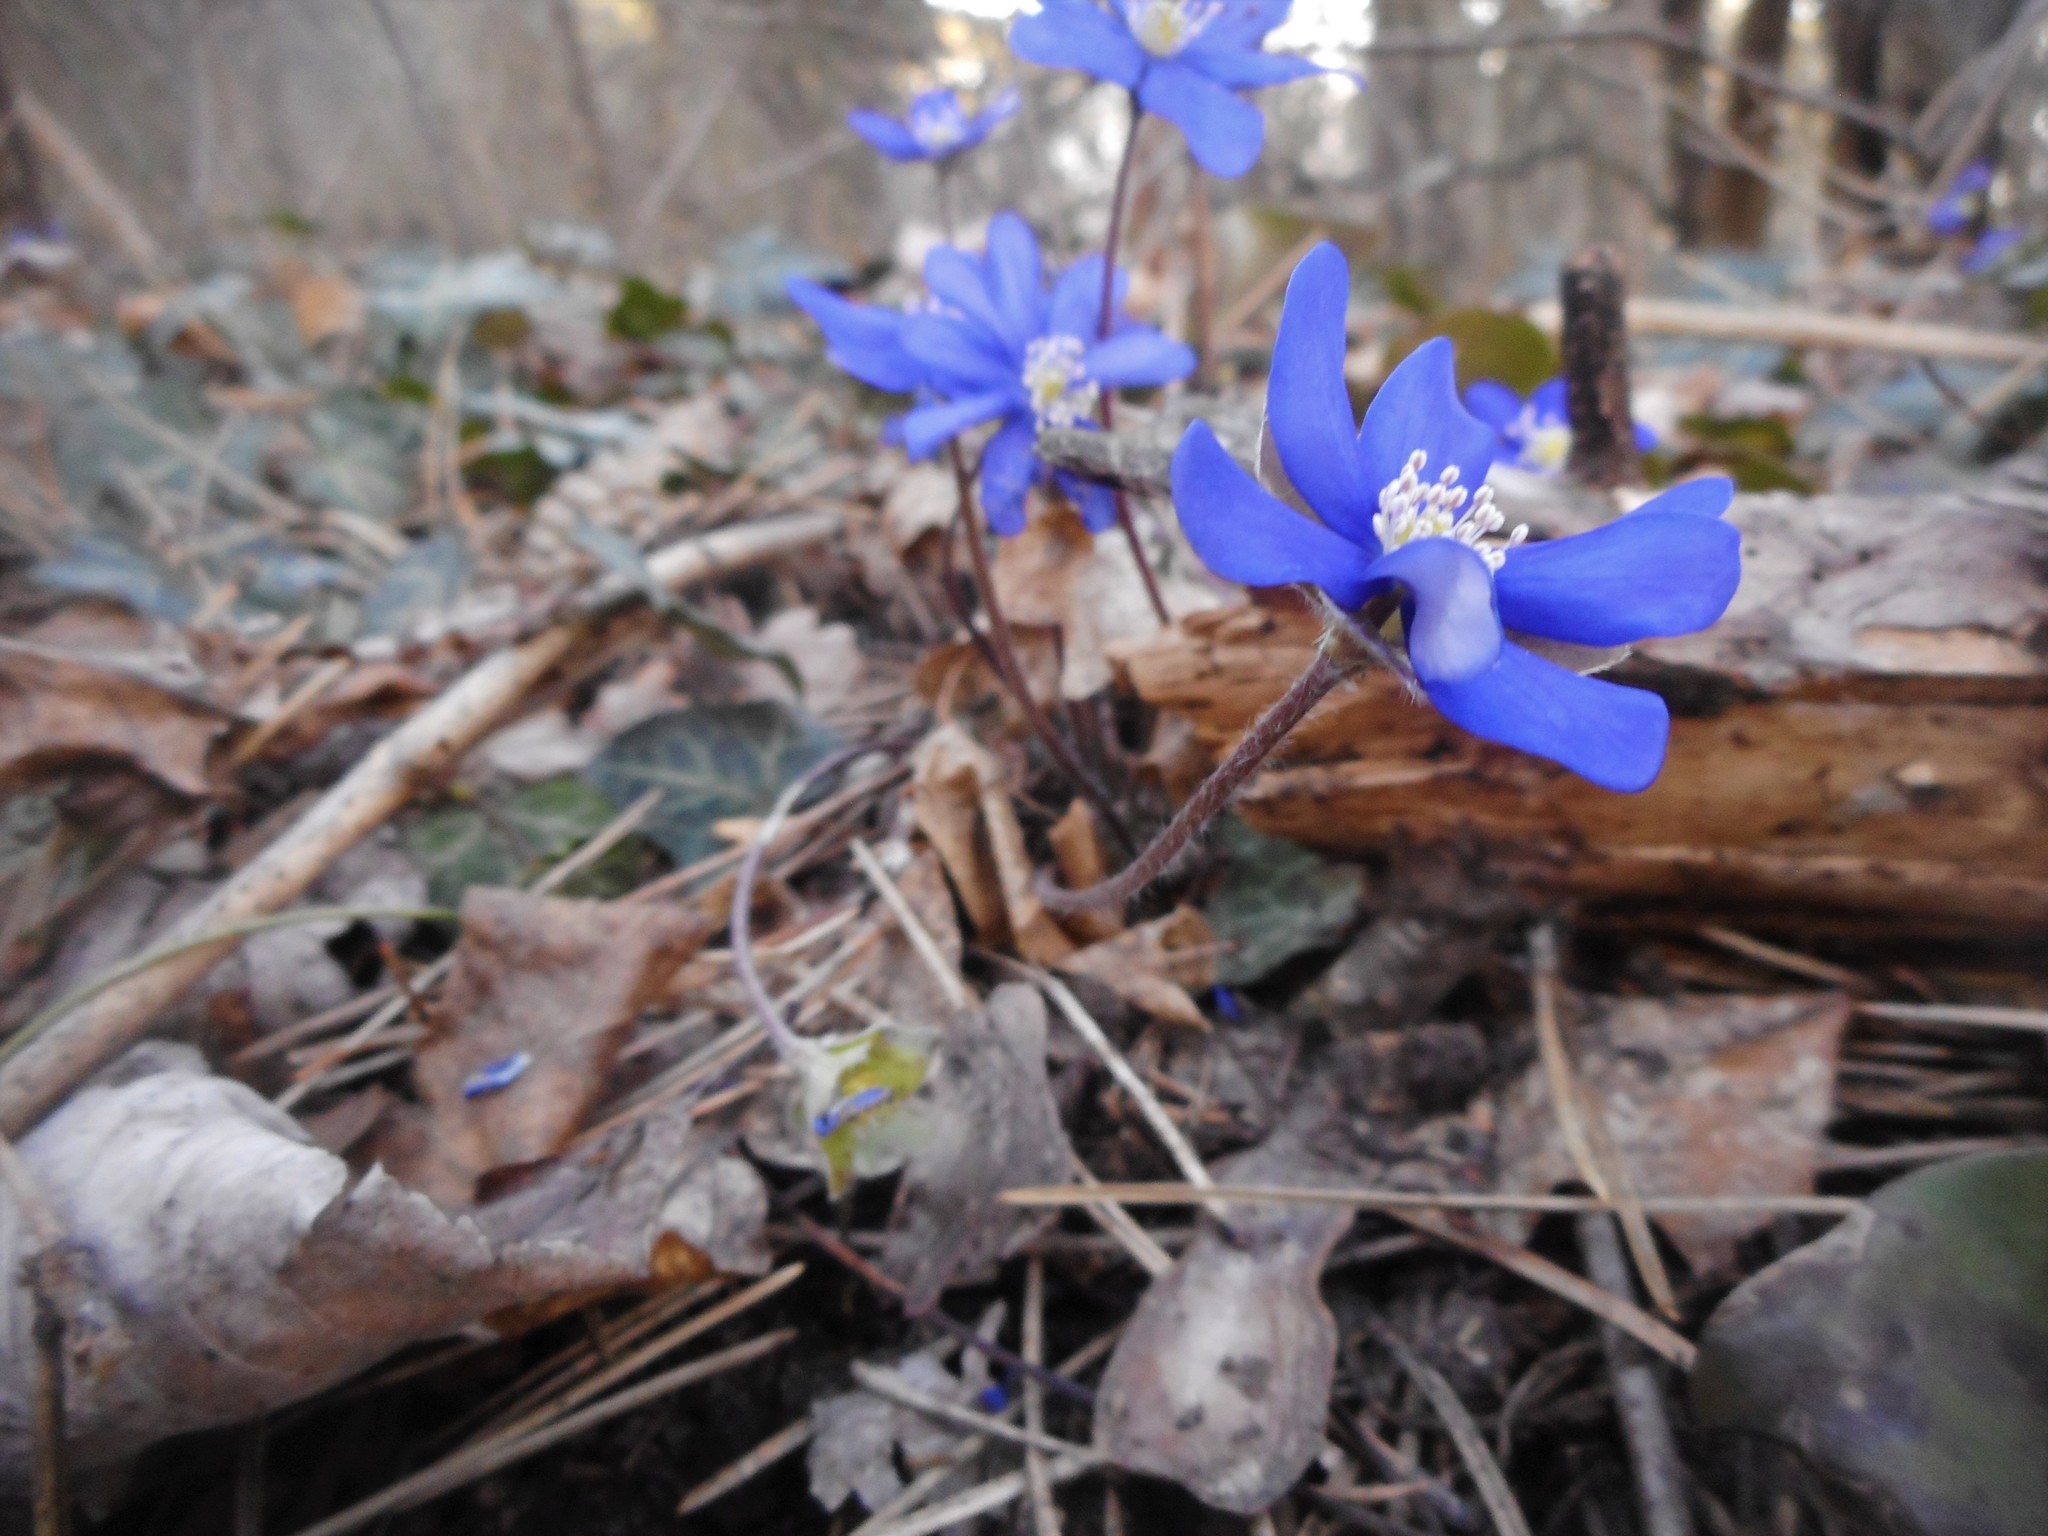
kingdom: Plantae
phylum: Tracheophyta
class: Magnoliopsida
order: Ranunculales
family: Ranunculaceae
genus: Hepatica
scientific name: Hepatica nobilis
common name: Liverleaf
